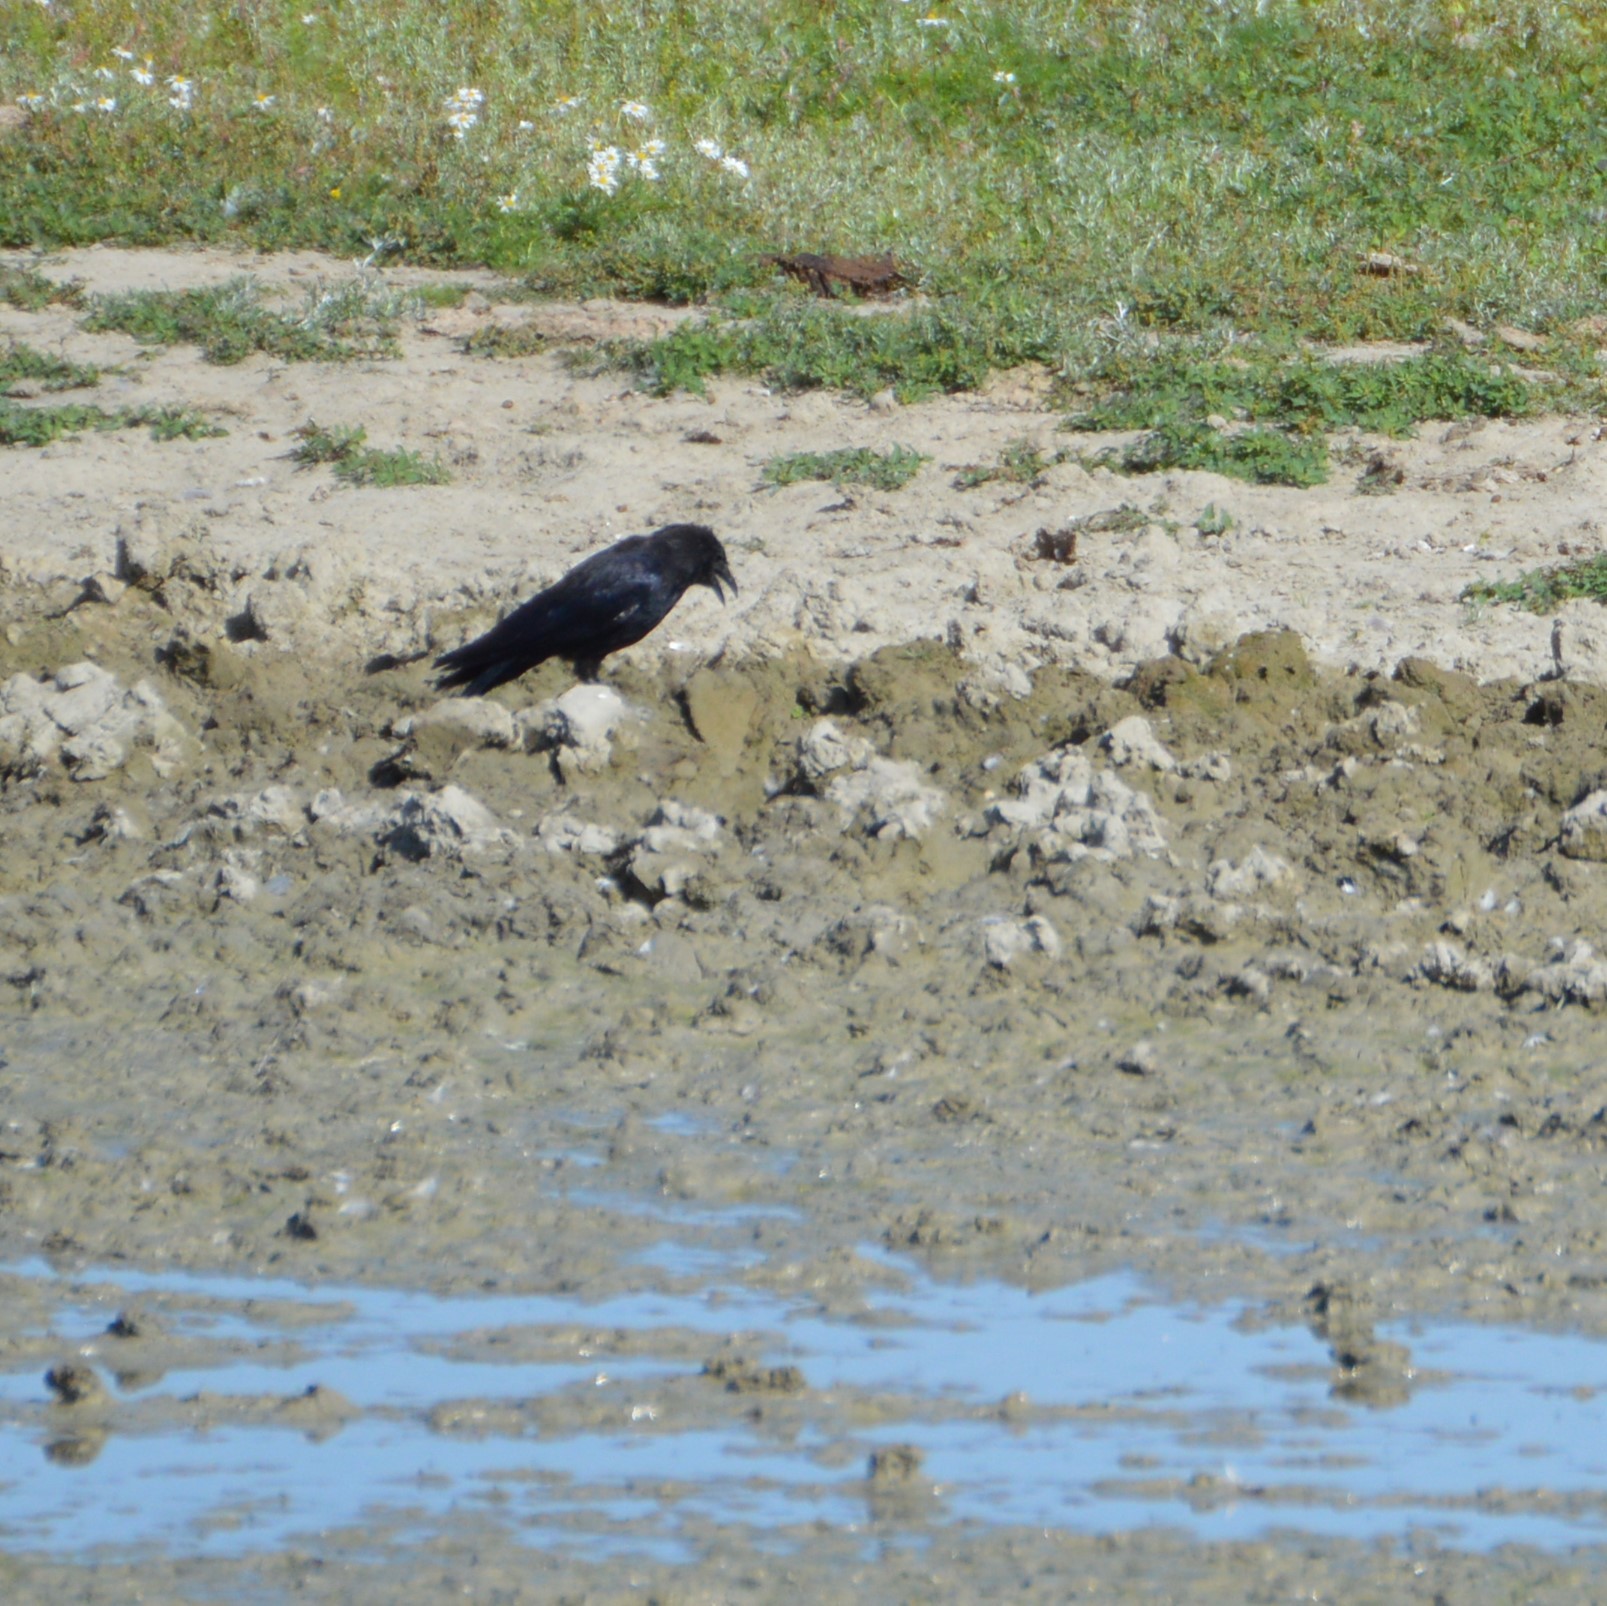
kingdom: Animalia
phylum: Chordata
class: Aves
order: Passeriformes
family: Corvidae
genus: Corvus
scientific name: Corvus corone
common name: Carrion crow
